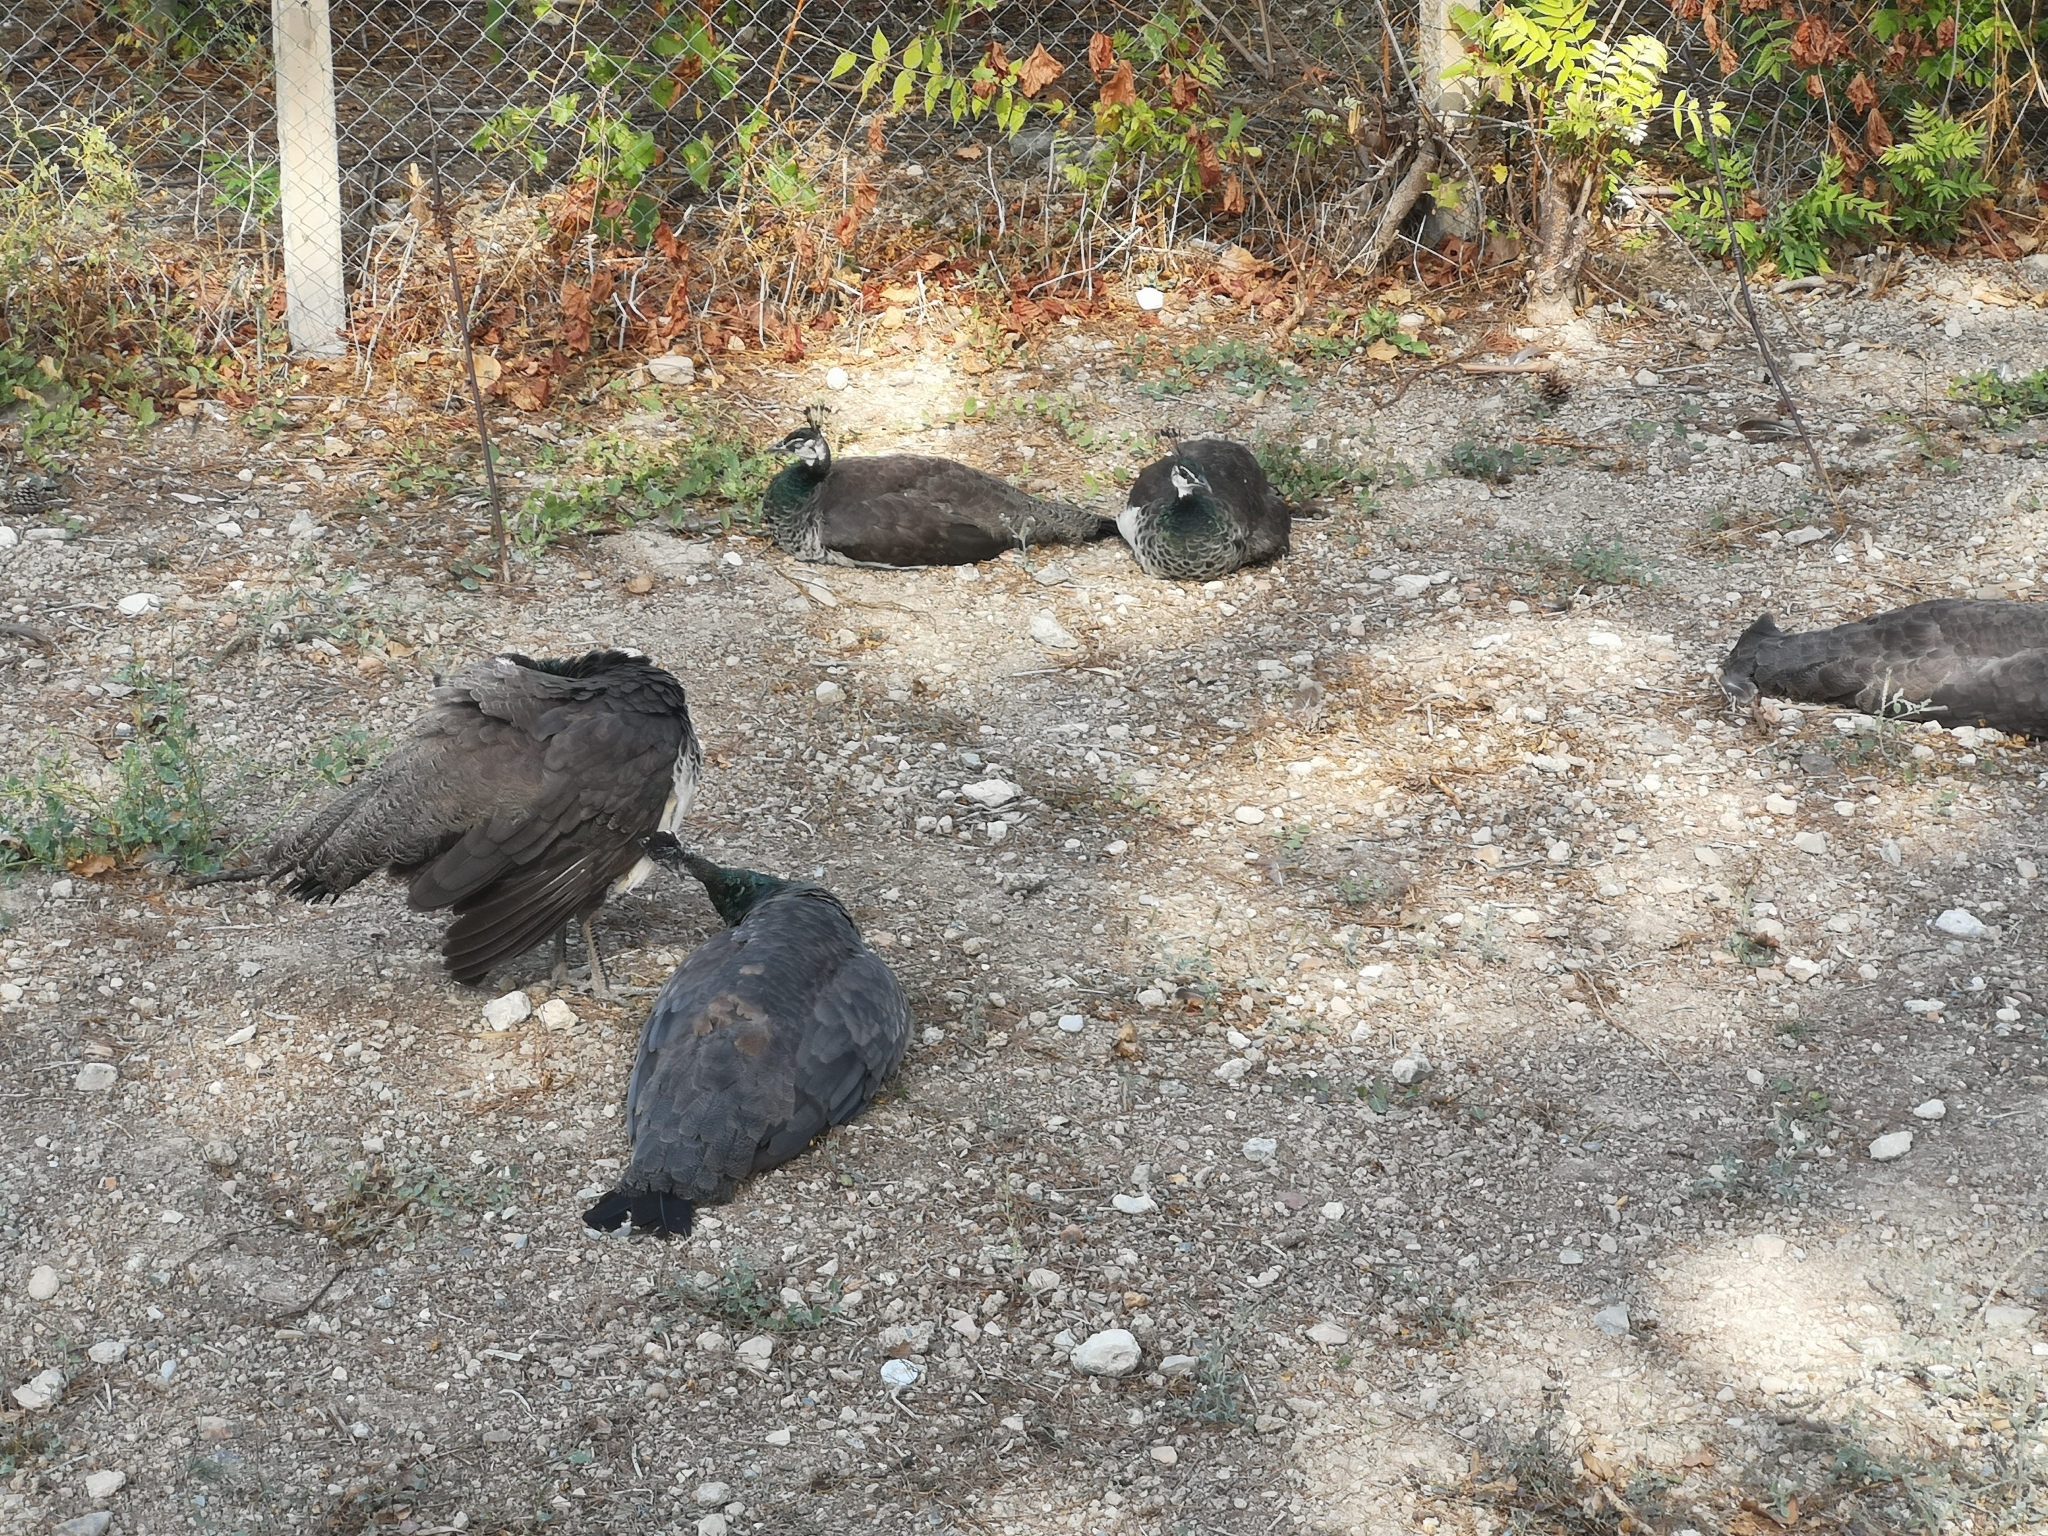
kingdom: Animalia
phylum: Chordata
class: Aves
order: Galliformes
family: Phasianidae
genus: Pavo
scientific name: Pavo cristatus
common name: Indian peafowl
